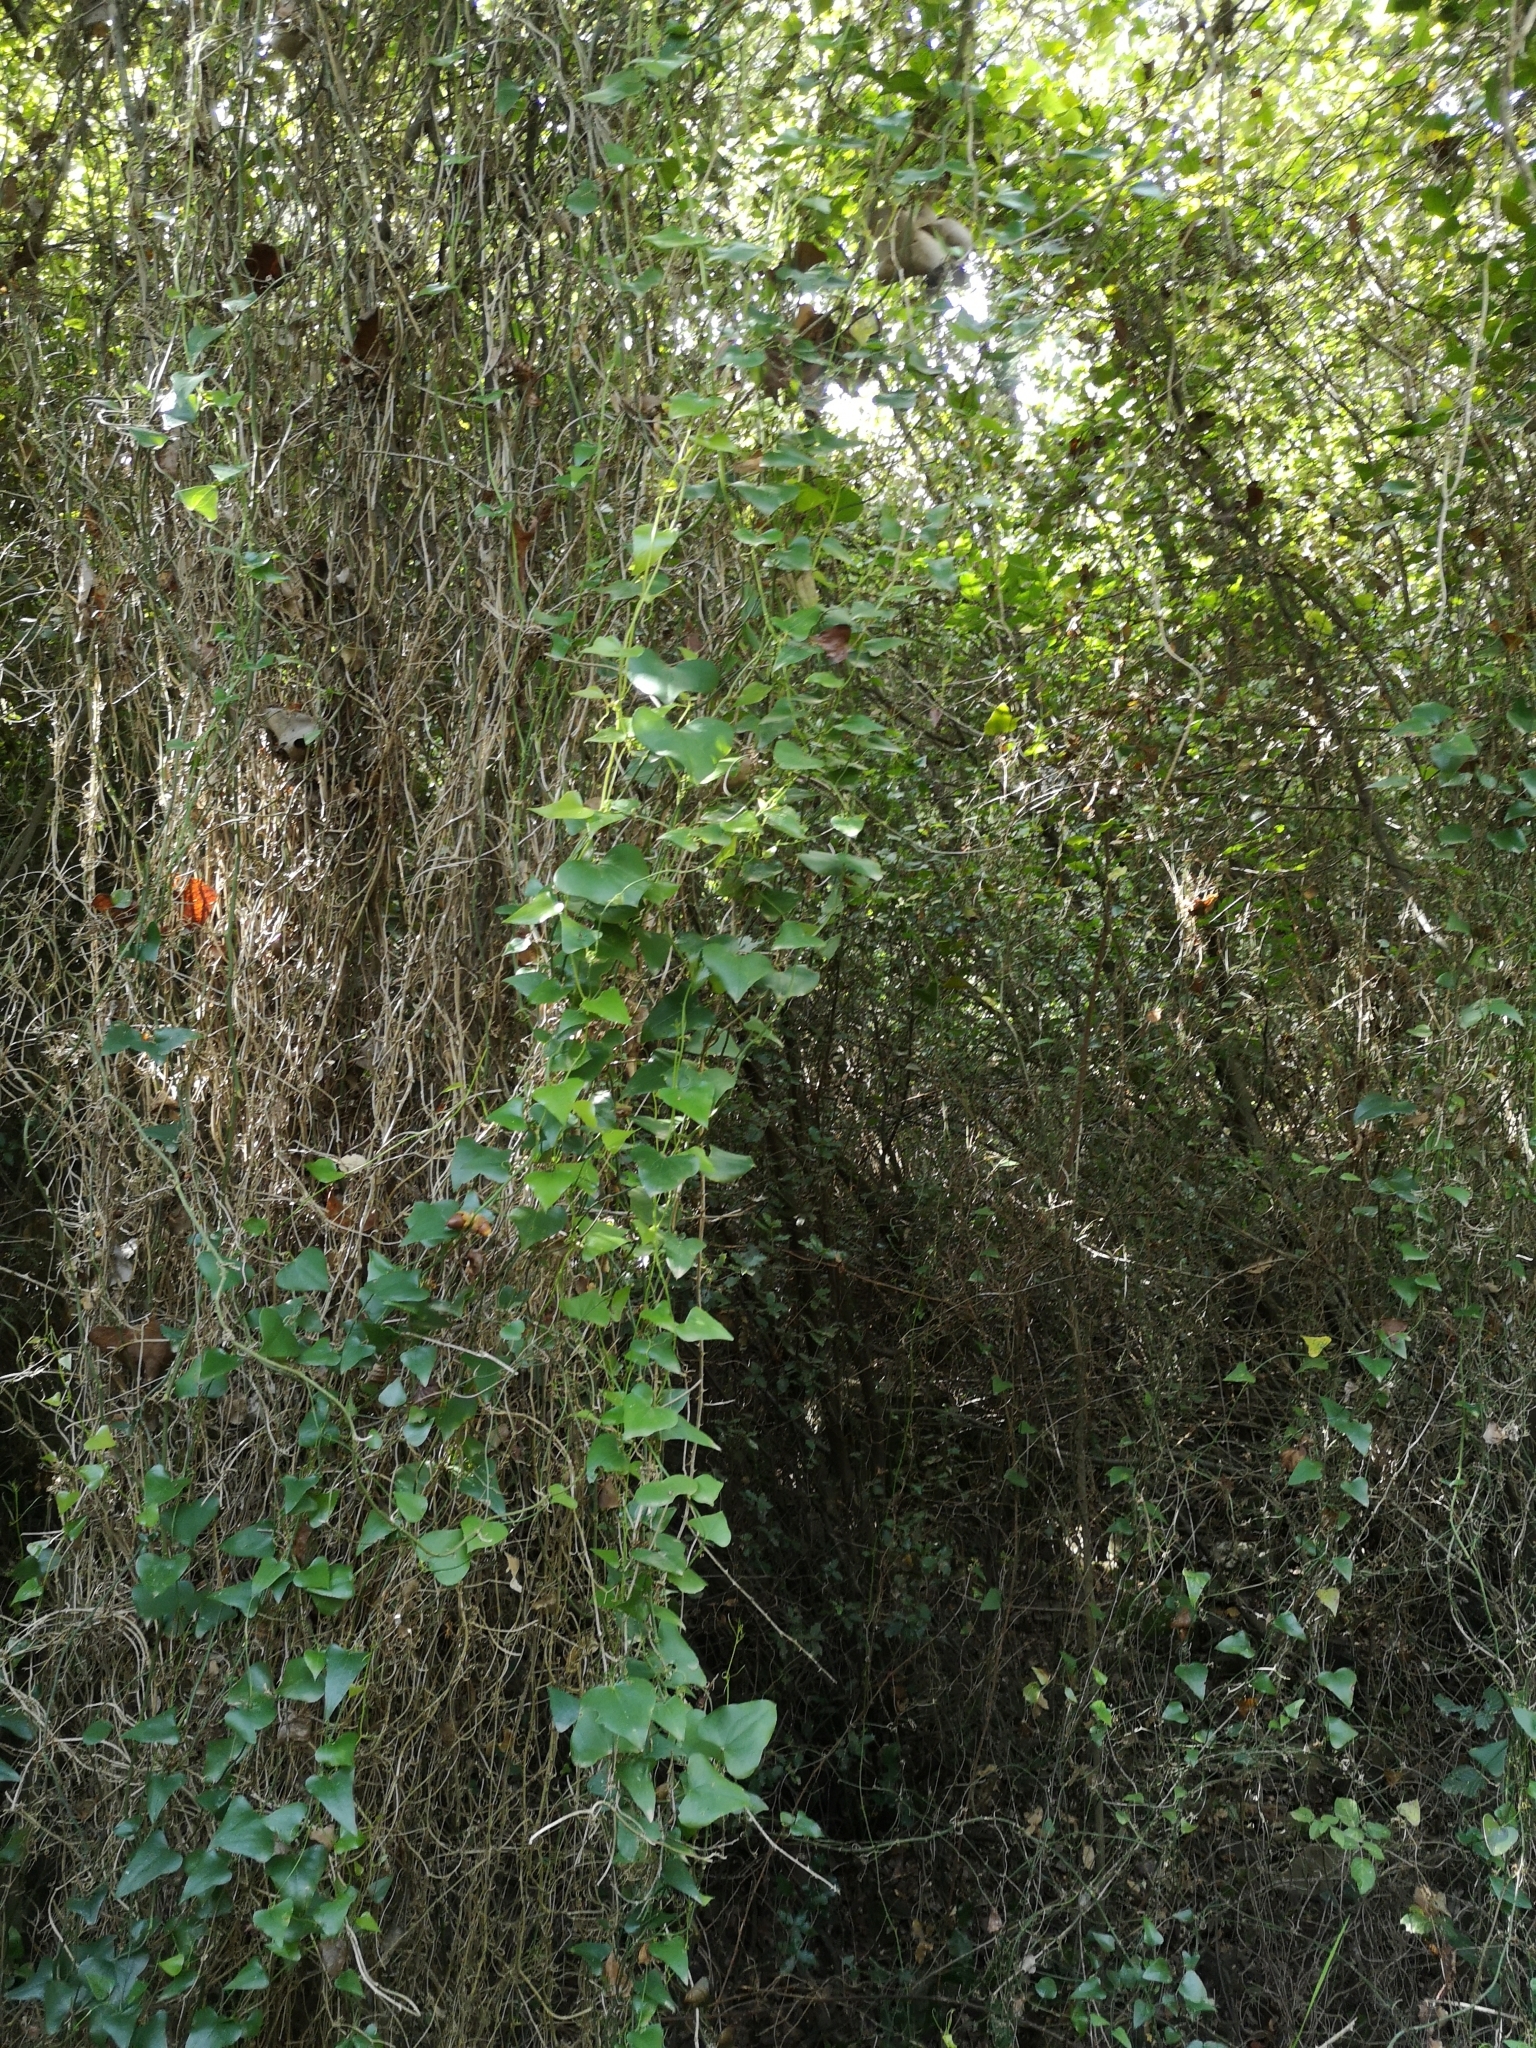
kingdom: Plantae
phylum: Tracheophyta
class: Liliopsida
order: Liliales
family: Smilacaceae
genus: Smilax
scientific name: Smilax aspera
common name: Common smilax
